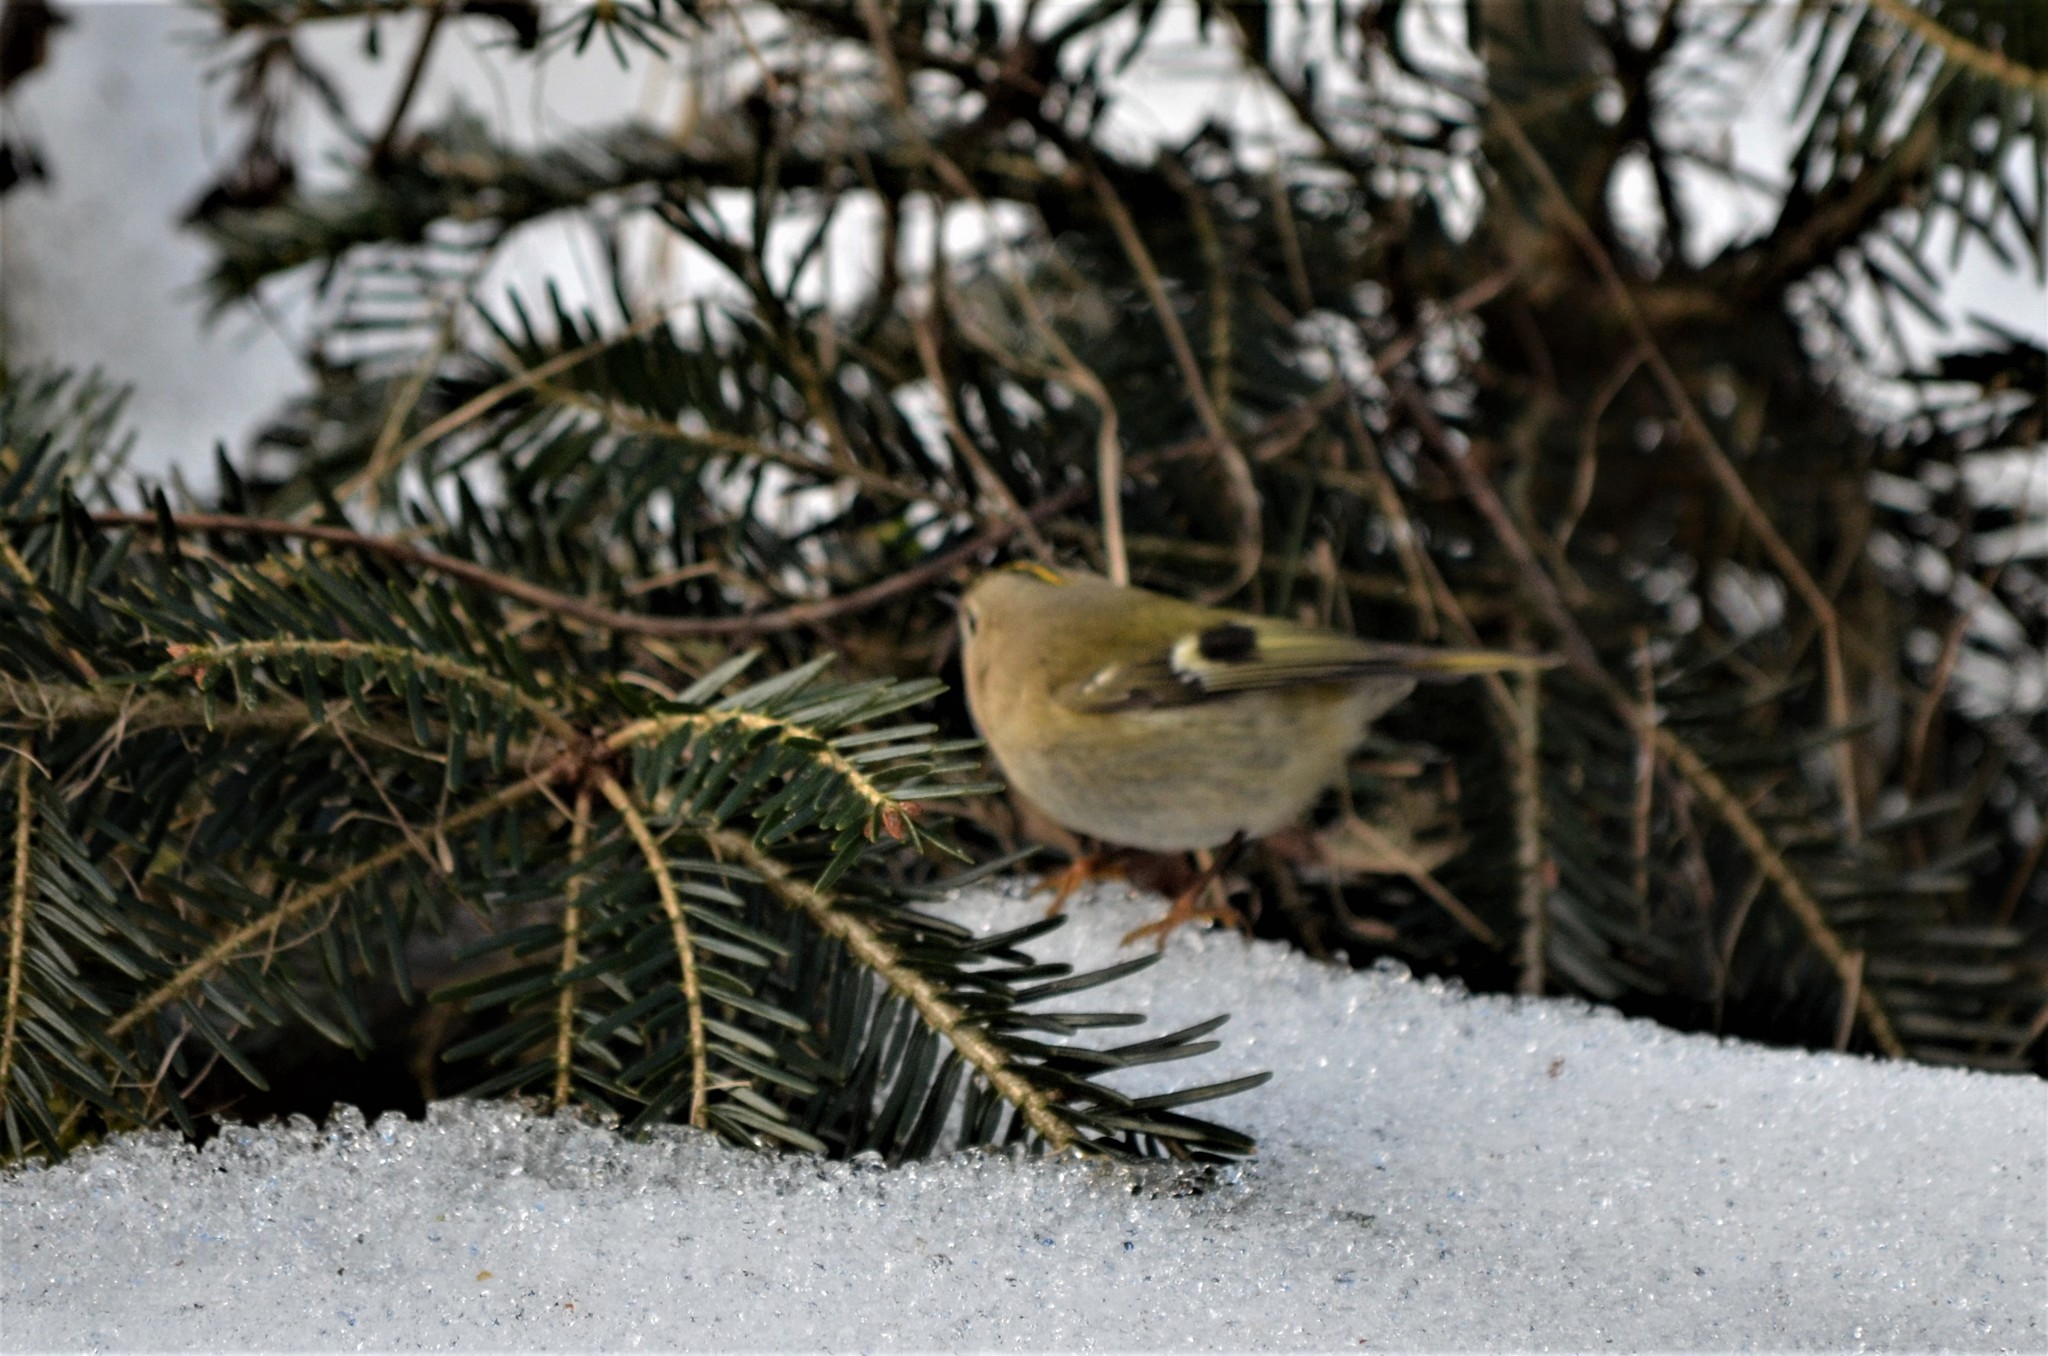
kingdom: Animalia
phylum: Chordata
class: Aves
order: Passeriformes
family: Regulidae
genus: Regulus
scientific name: Regulus regulus
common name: Goldcrest
